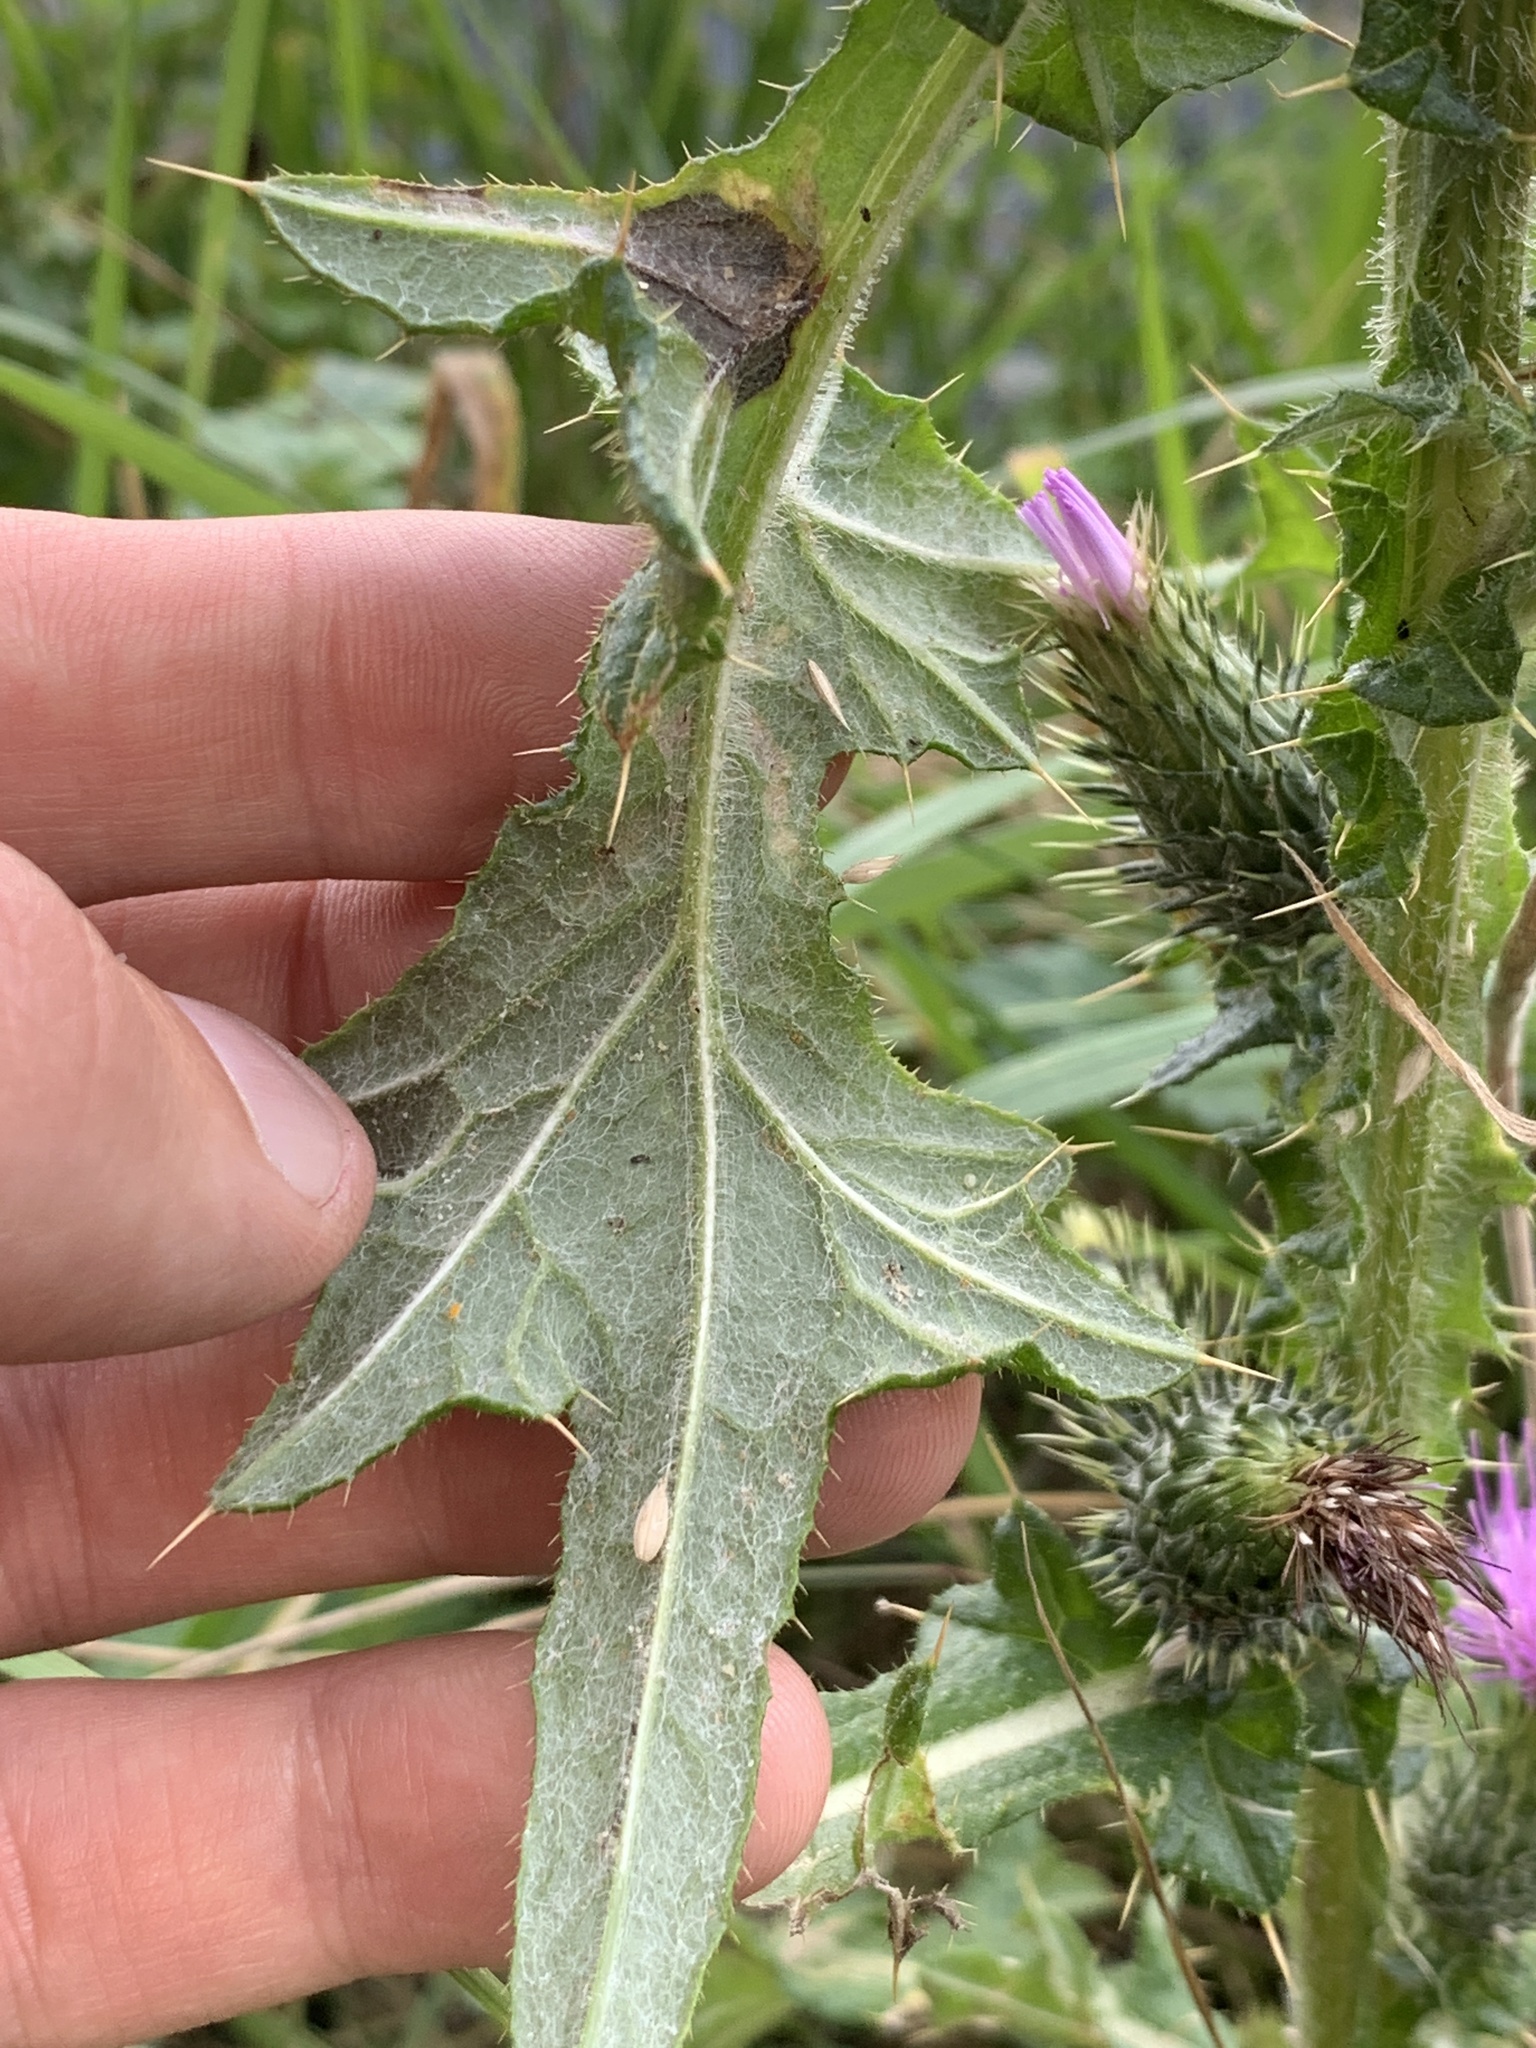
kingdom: Plantae
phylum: Tracheophyta
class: Magnoliopsida
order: Asterales
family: Asteraceae
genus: Cirsium
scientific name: Cirsium vulgare
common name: Bull thistle
